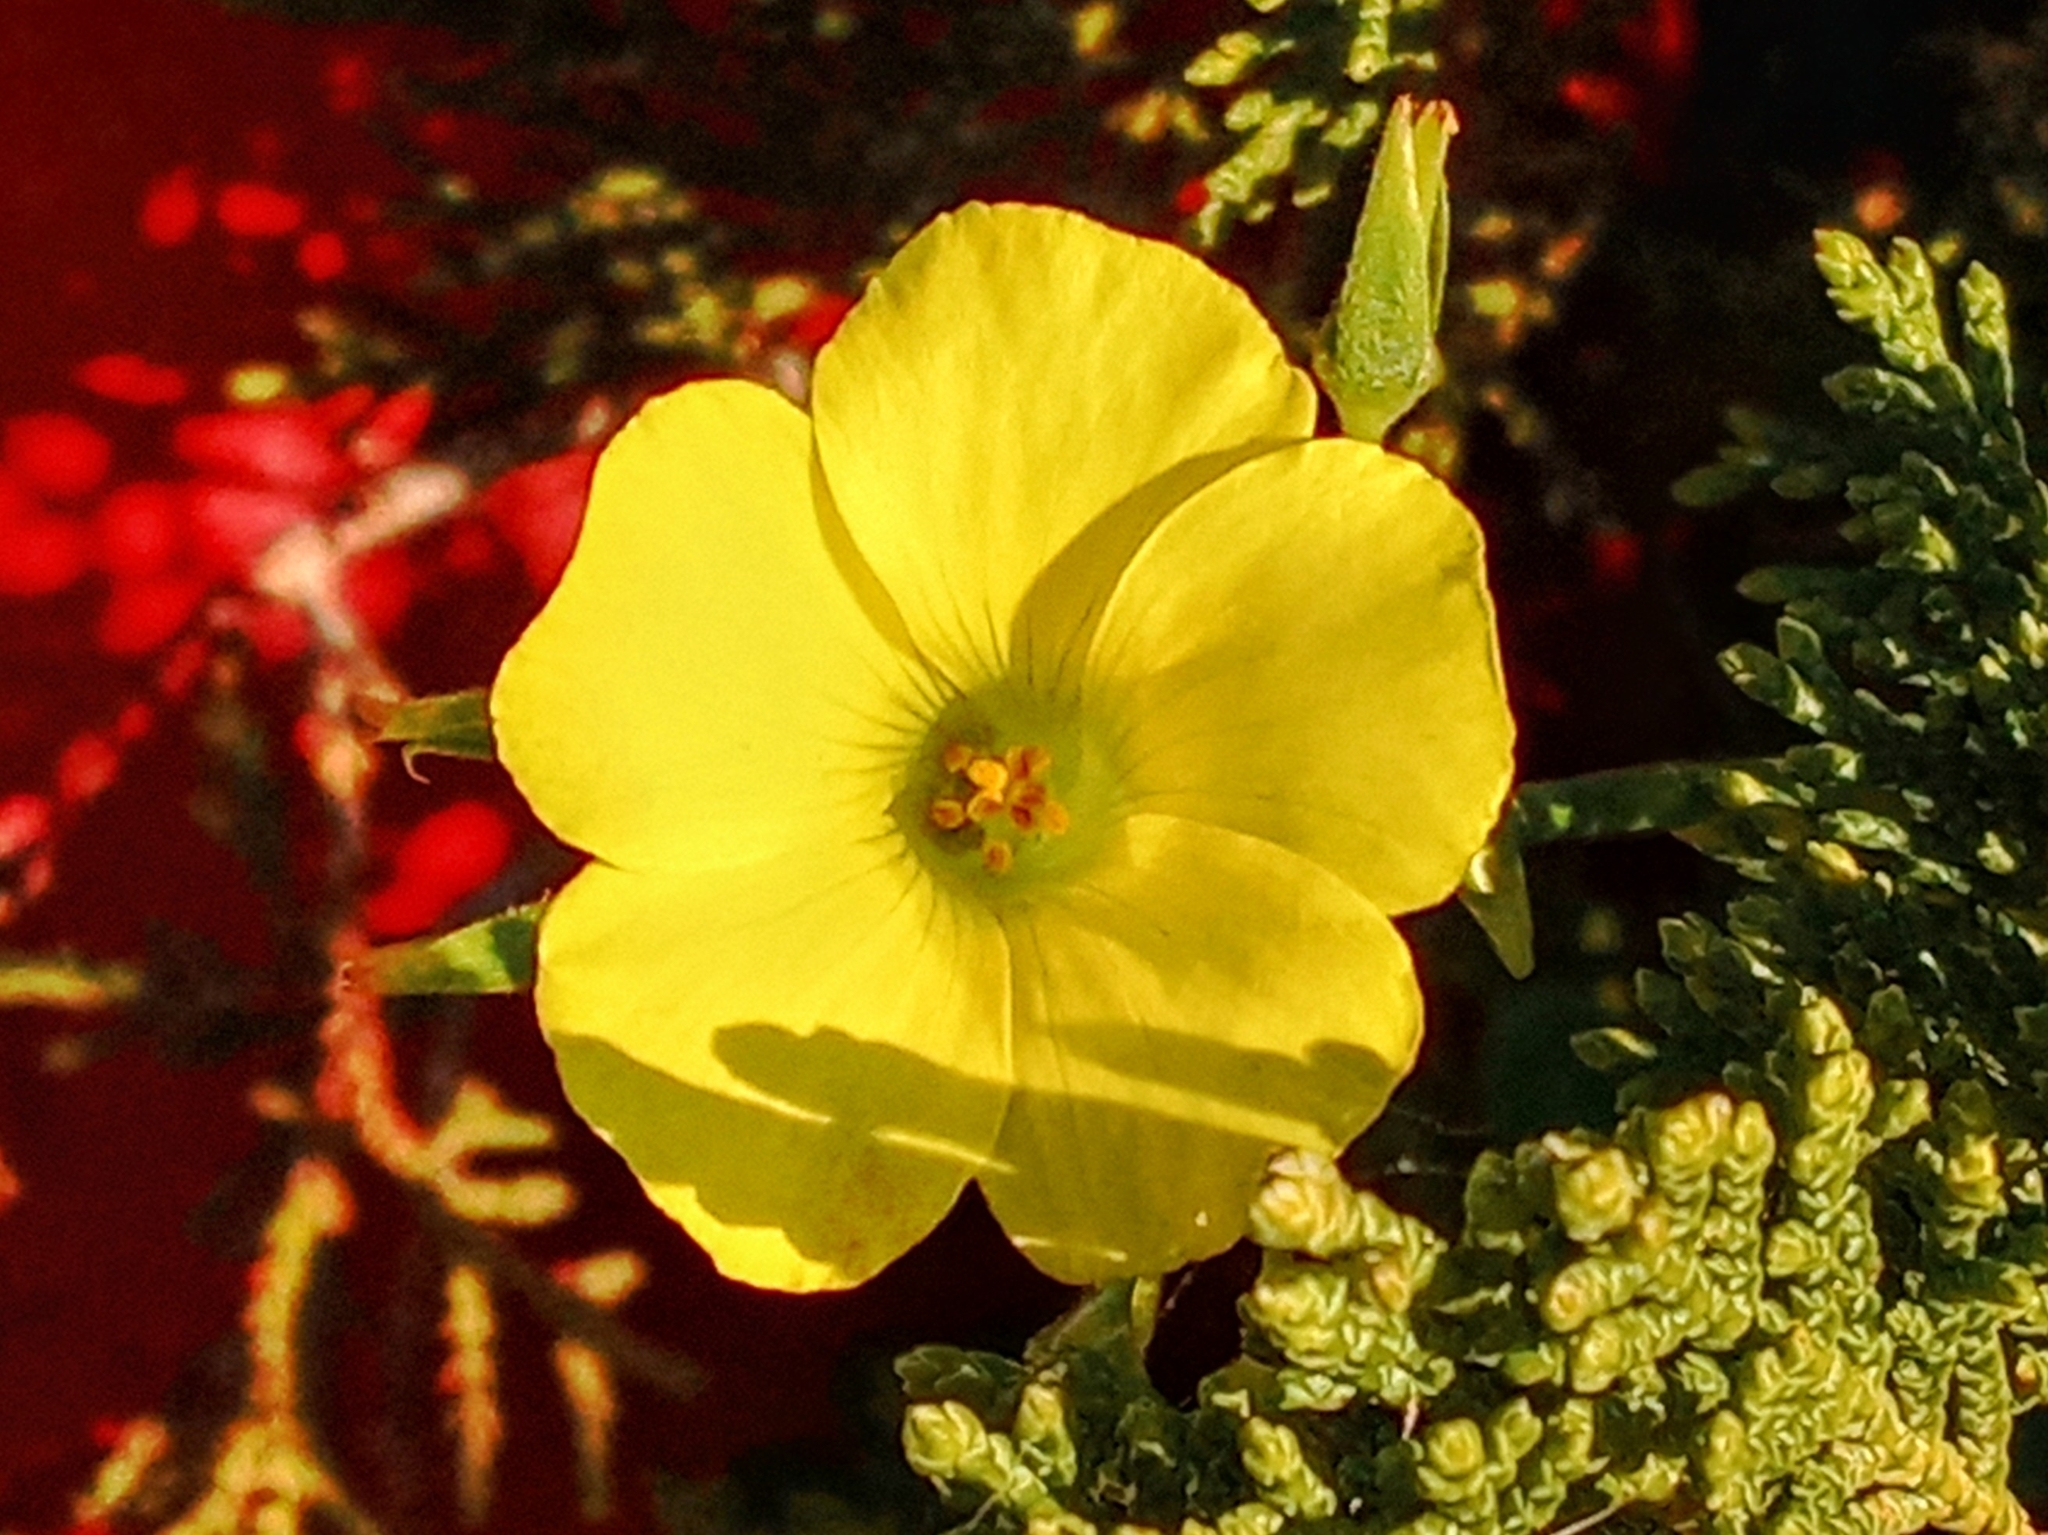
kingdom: Plantae
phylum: Tracheophyta
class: Magnoliopsida
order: Oxalidales
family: Oxalidaceae
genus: Oxalis
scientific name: Oxalis pes-caprae
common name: Bermuda-buttercup
